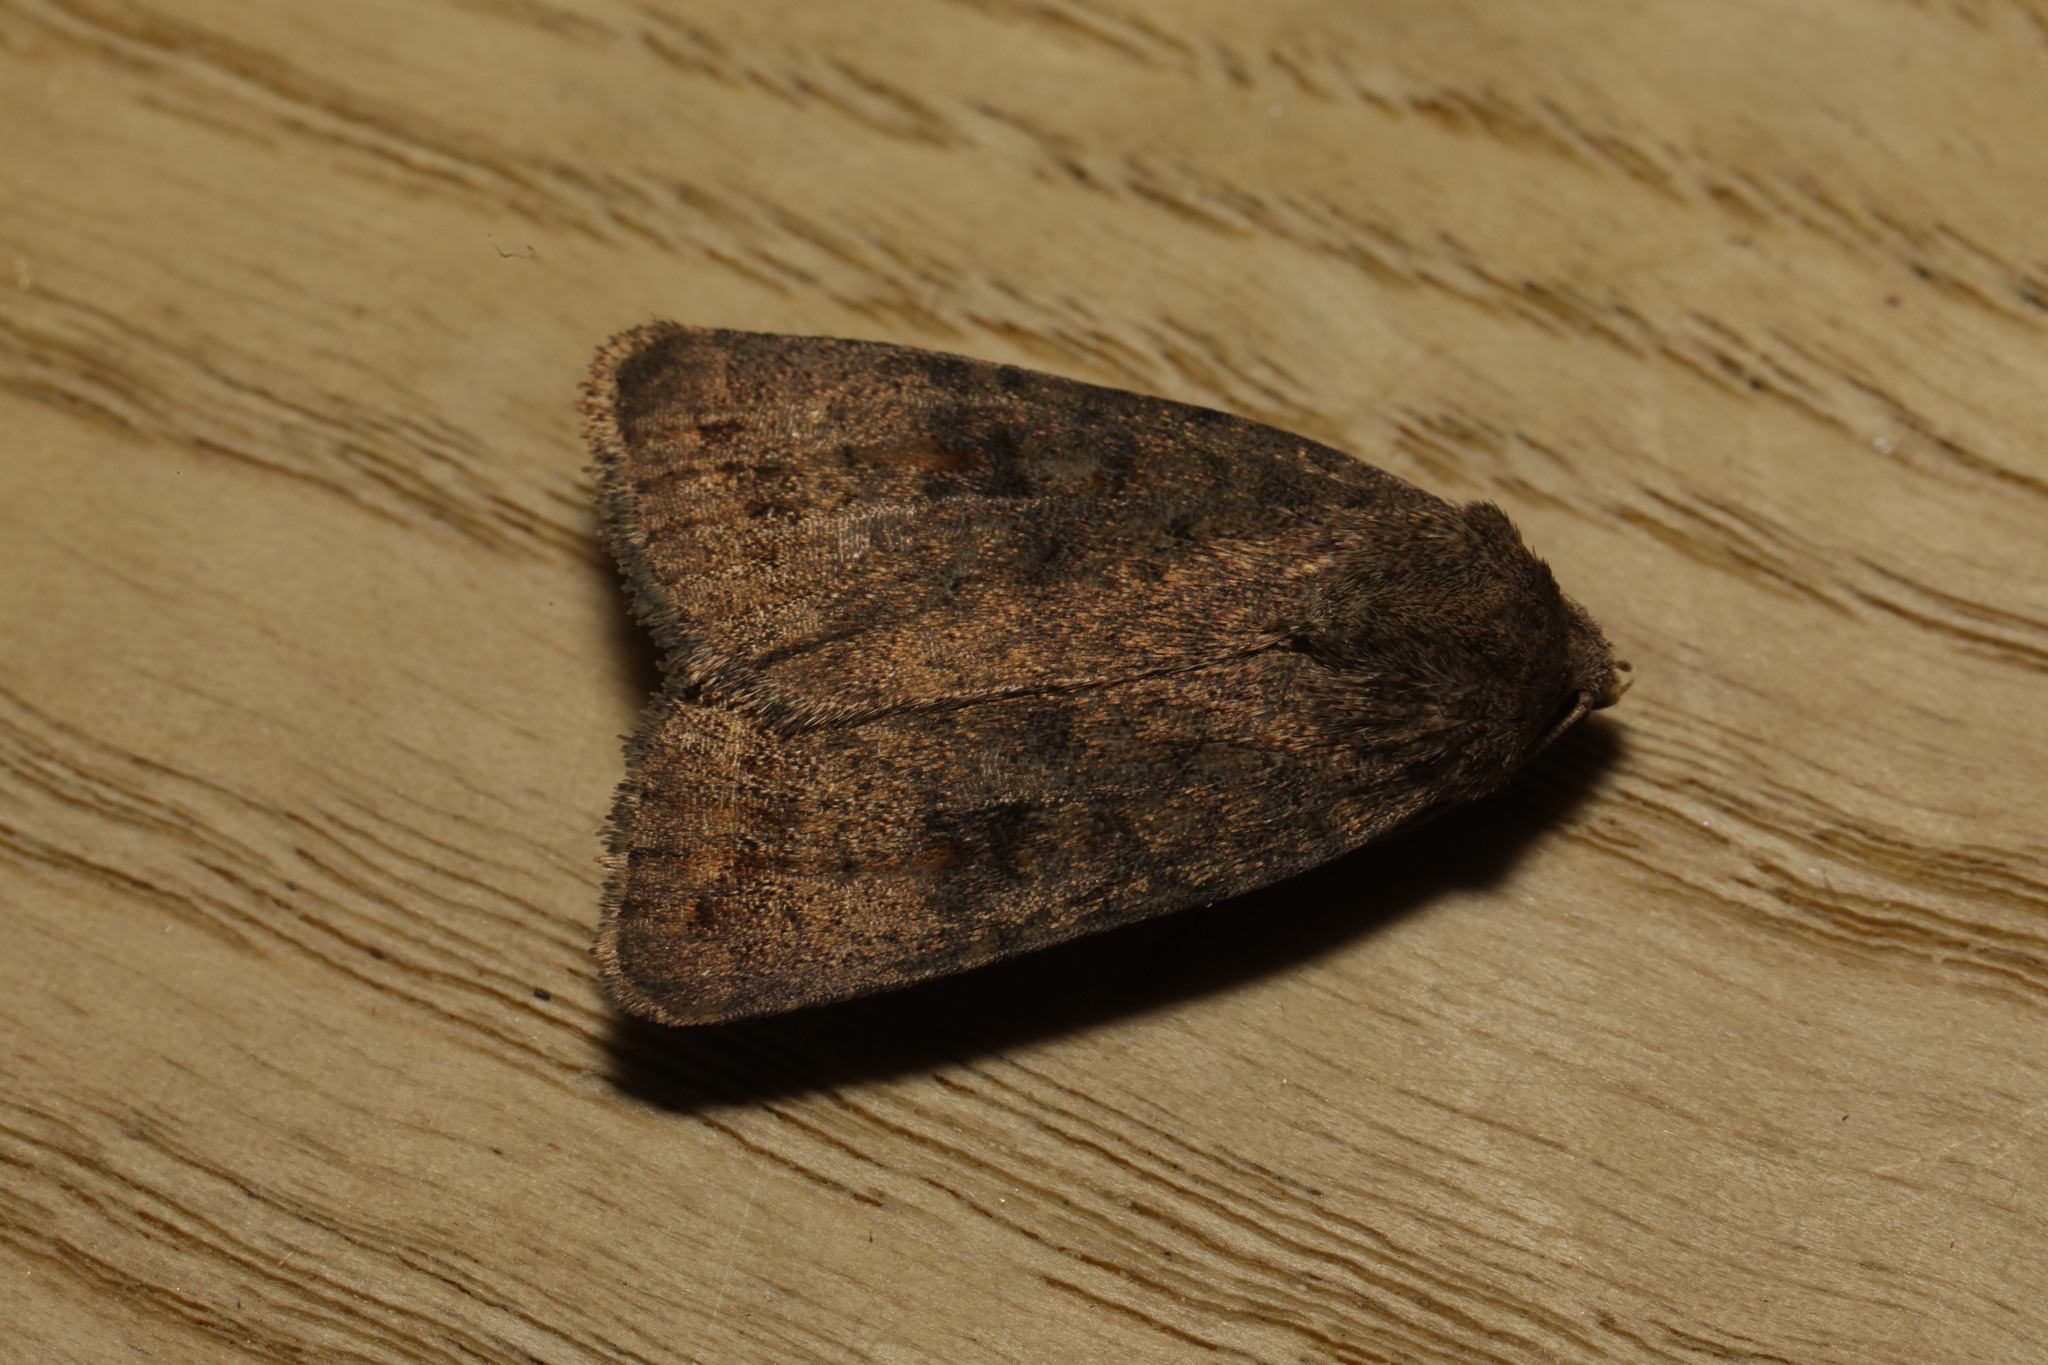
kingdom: Animalia
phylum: Arthropoda
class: Insecta
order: Lepidoptera
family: Noctuidae
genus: Caradrina
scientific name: Caradrina morpheus
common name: Mottled rustic
